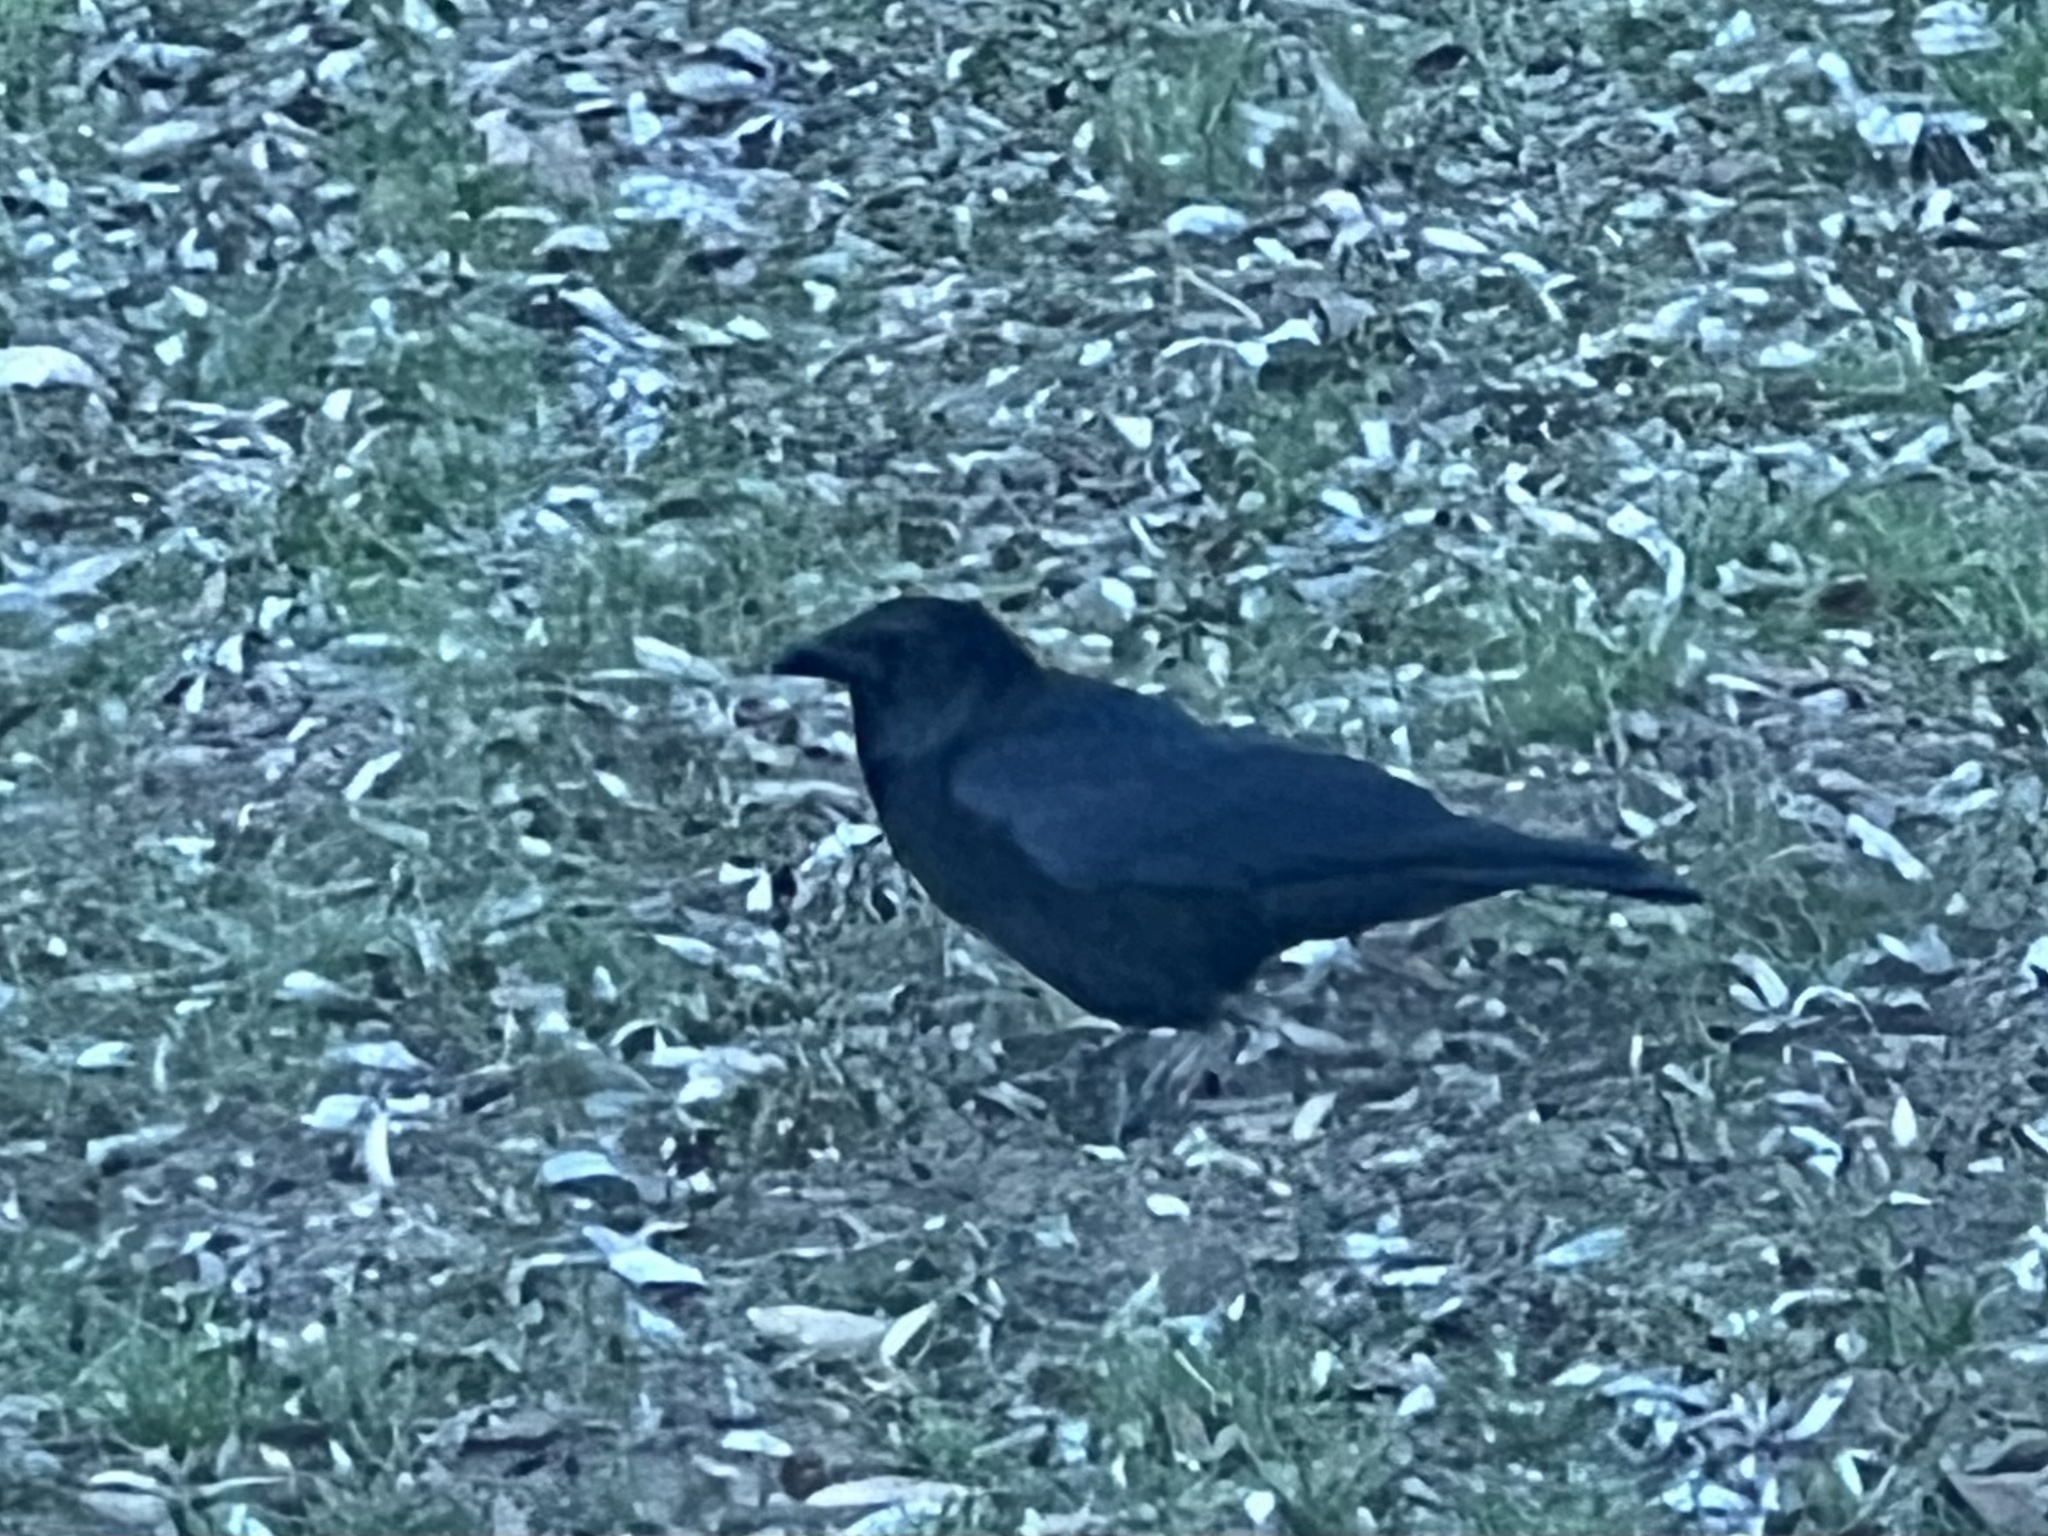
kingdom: Animalia
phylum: Chordata
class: Aves
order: Passeriformes
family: Corvidae
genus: Corvus
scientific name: Corvus corone
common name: Carrion crow
